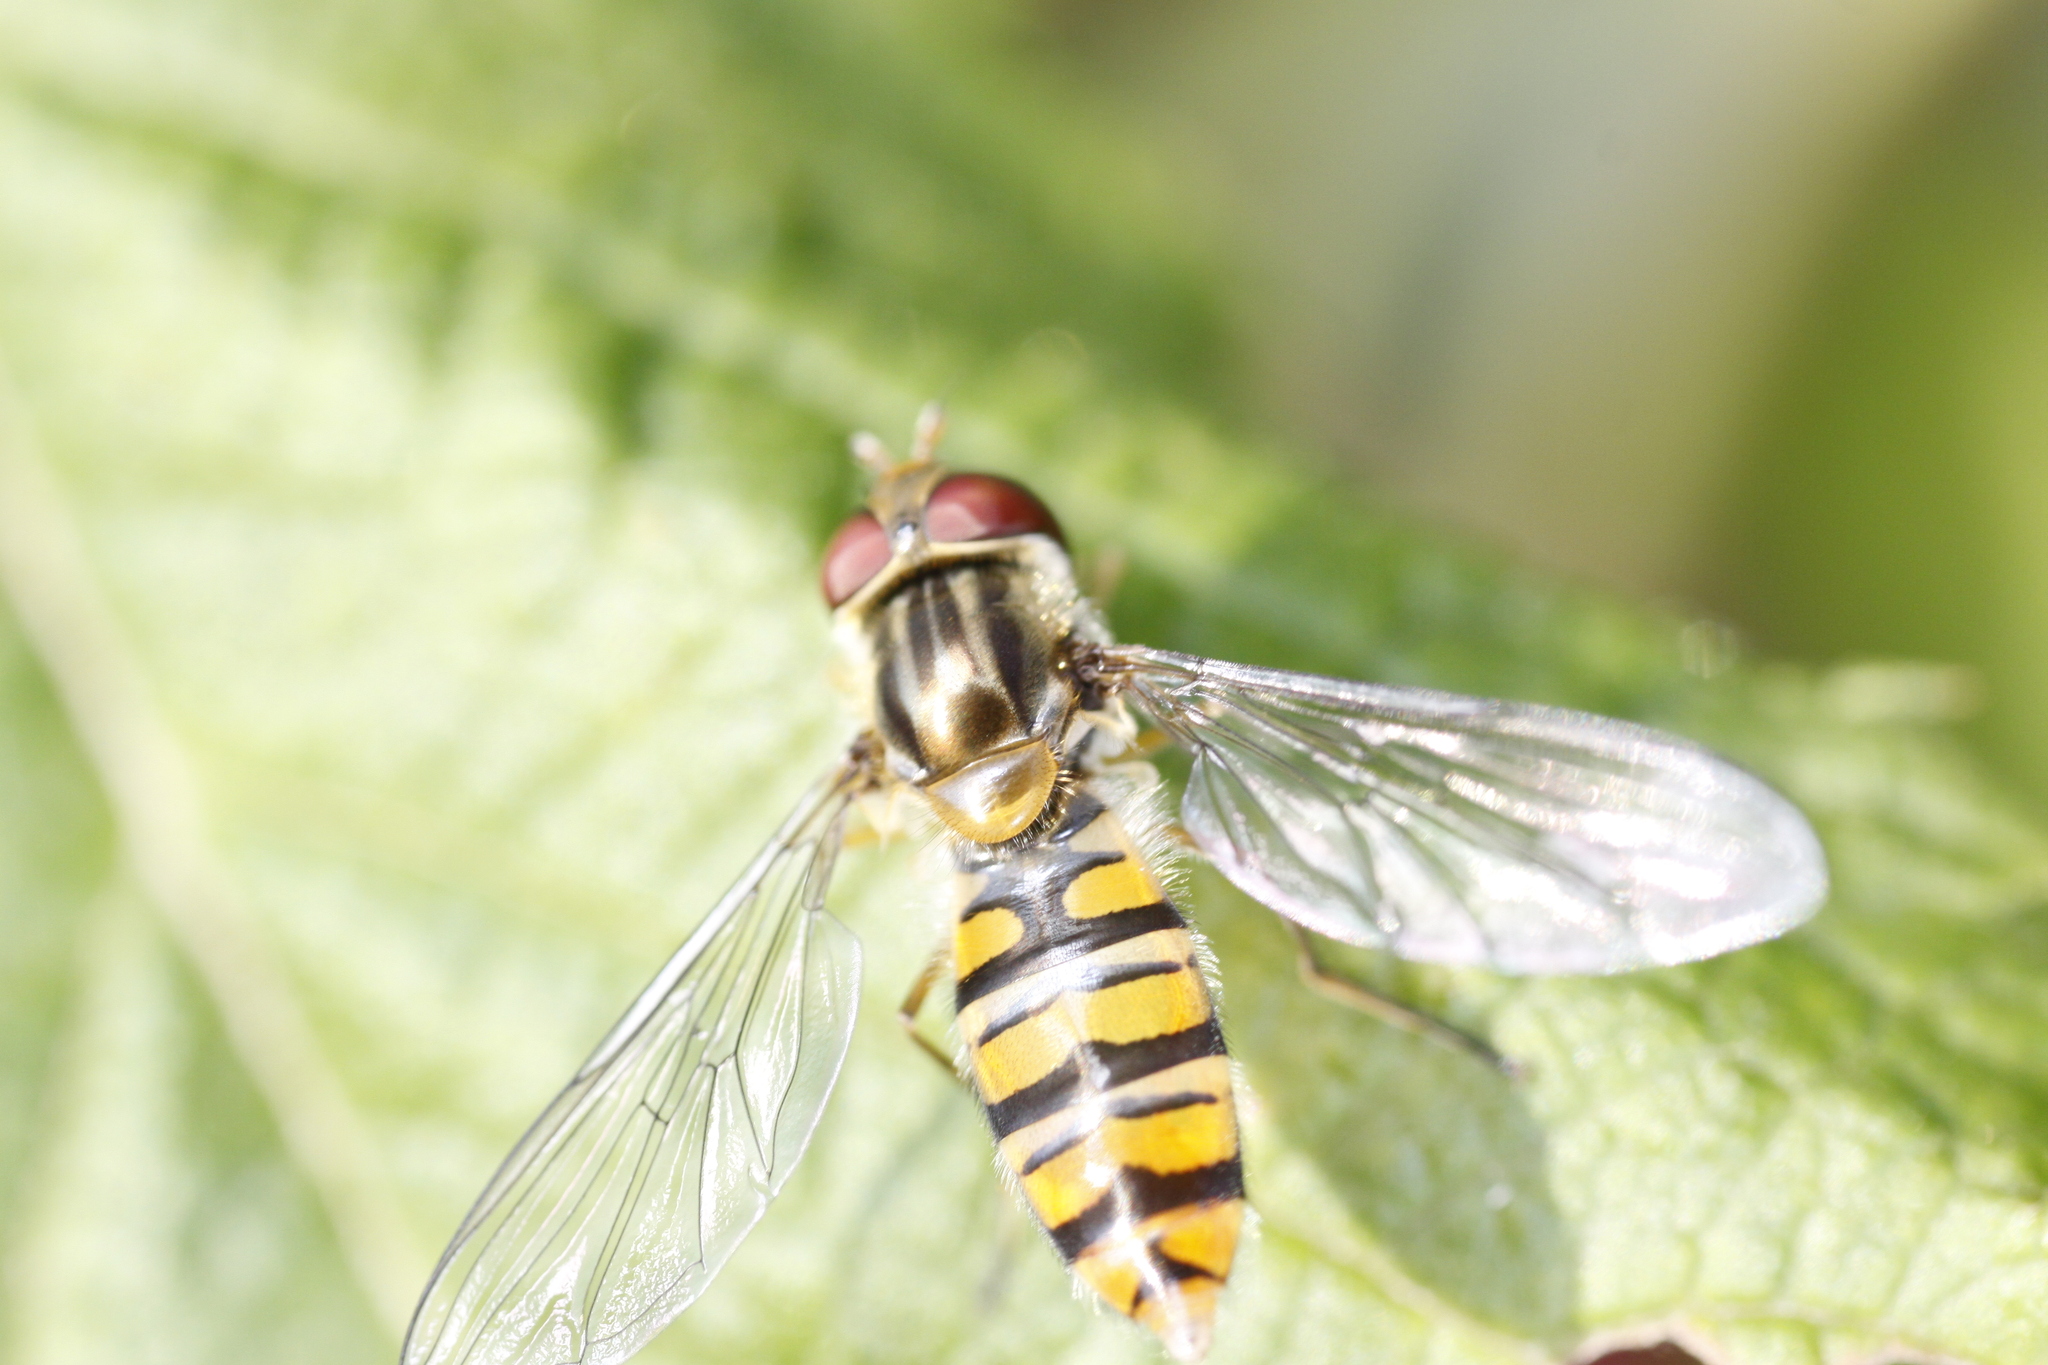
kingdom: Animalia
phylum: Arthropoda
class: Insecta
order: Diptera
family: Syrphidae
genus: Episyrphus
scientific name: Episyrphus balteatus
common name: Marmalade hoverfly
